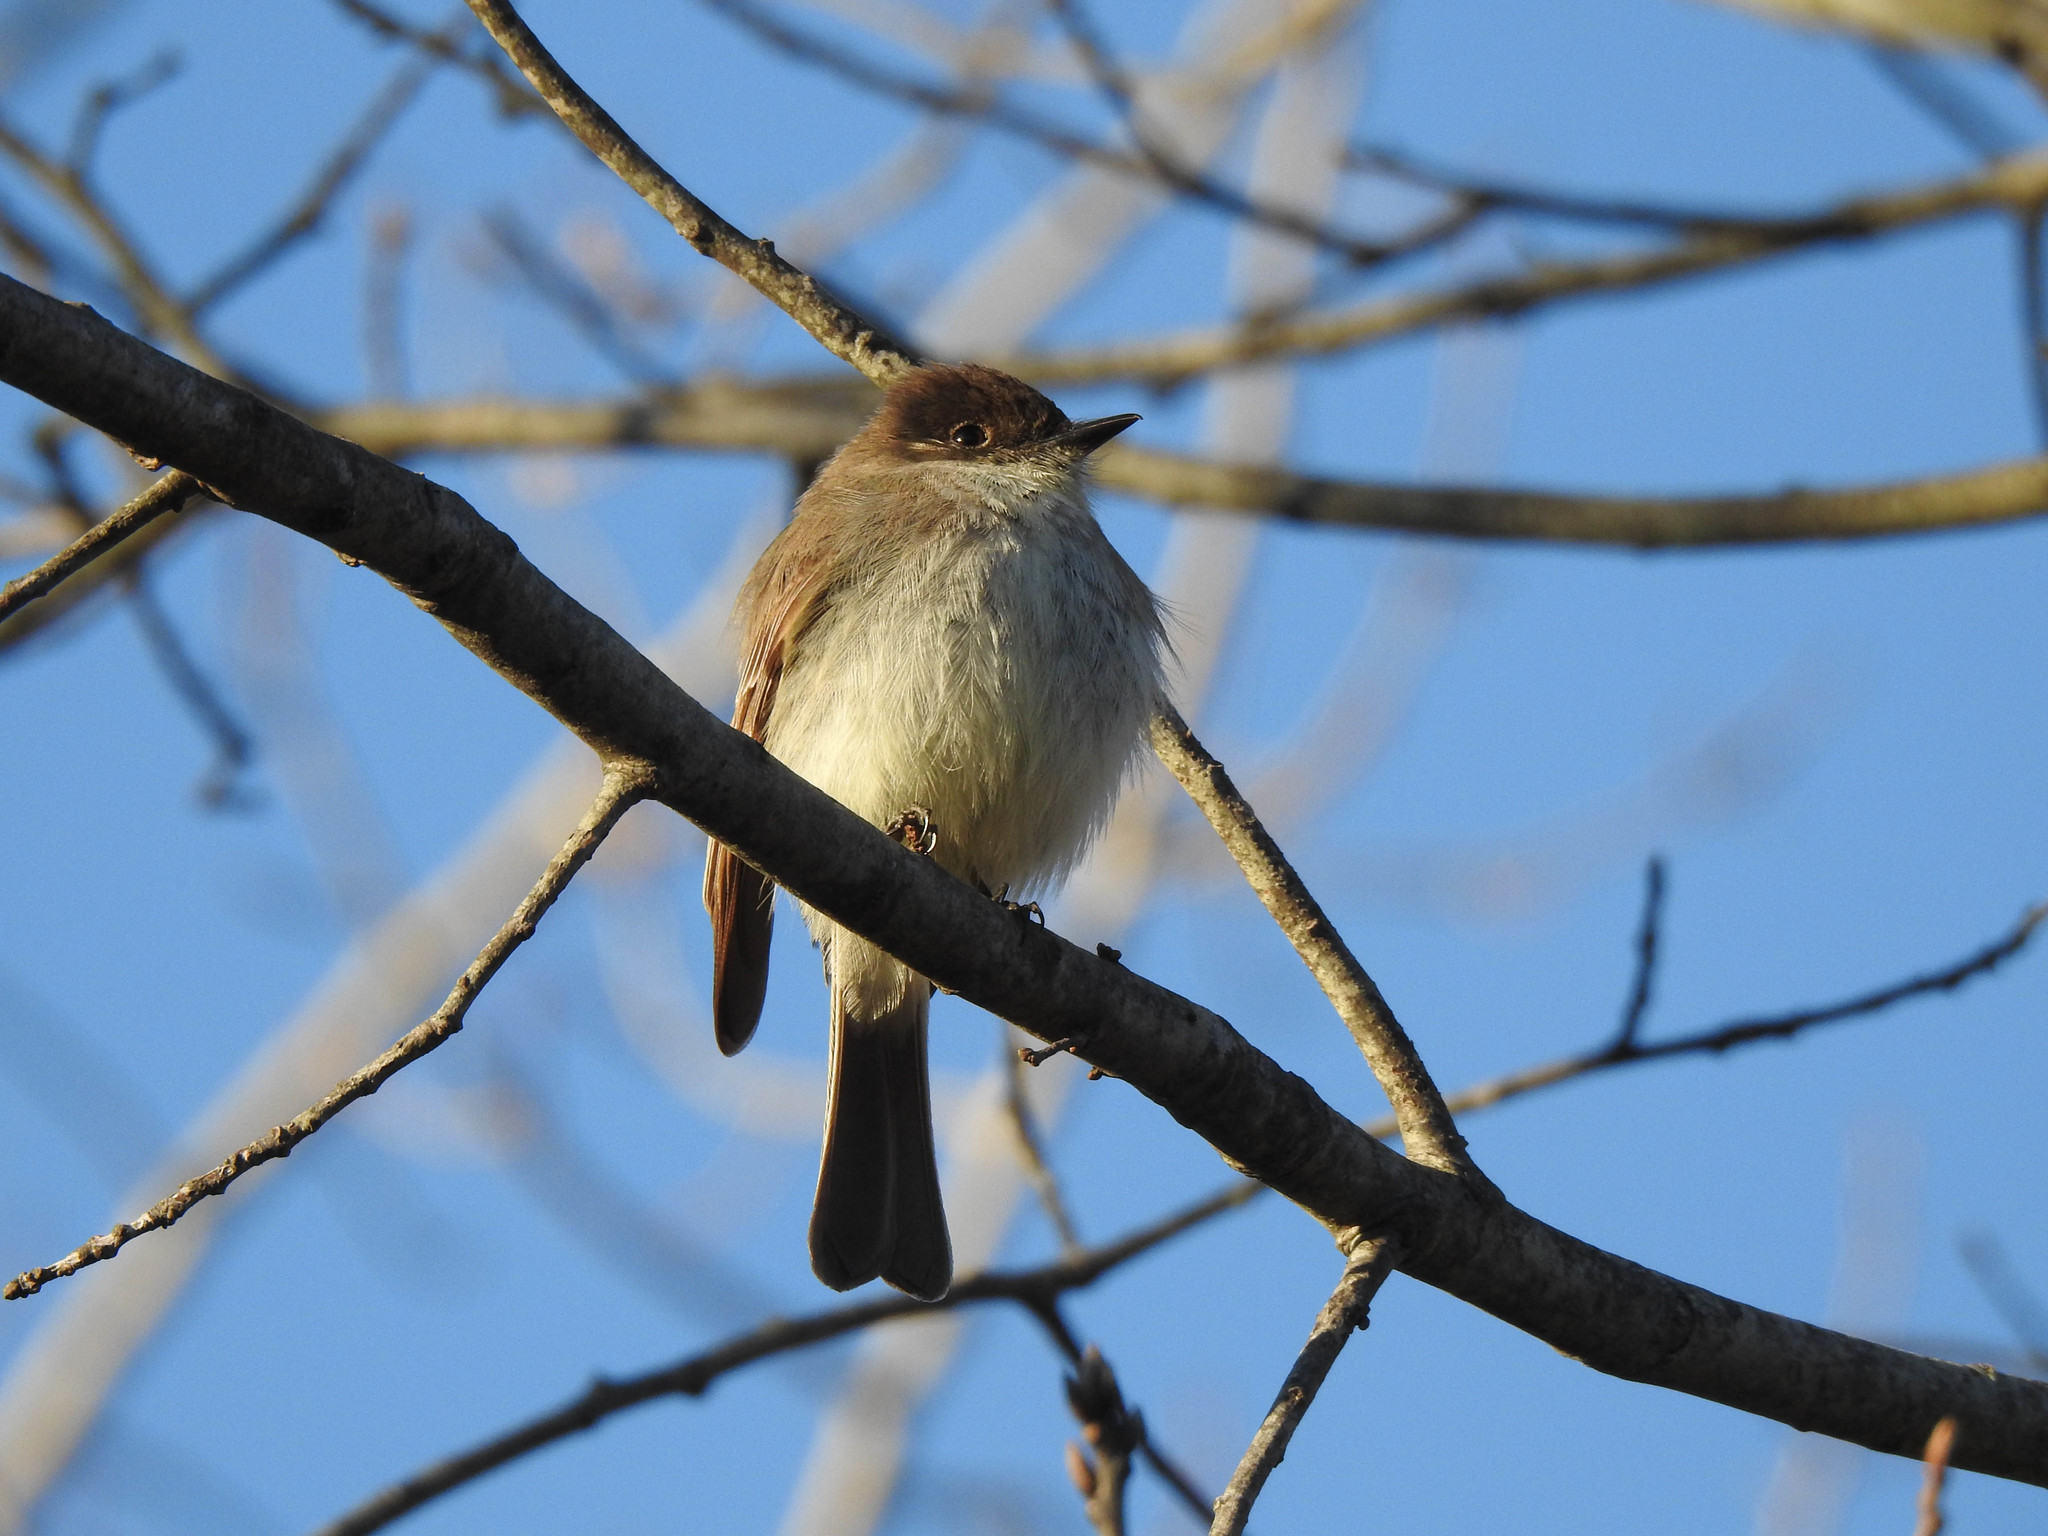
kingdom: Animalia
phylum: Chordata
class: Aves
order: Passeriformes
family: Tyrannidae
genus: Sayornis
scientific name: Sayornis phoebe
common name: Eastern phoebe
